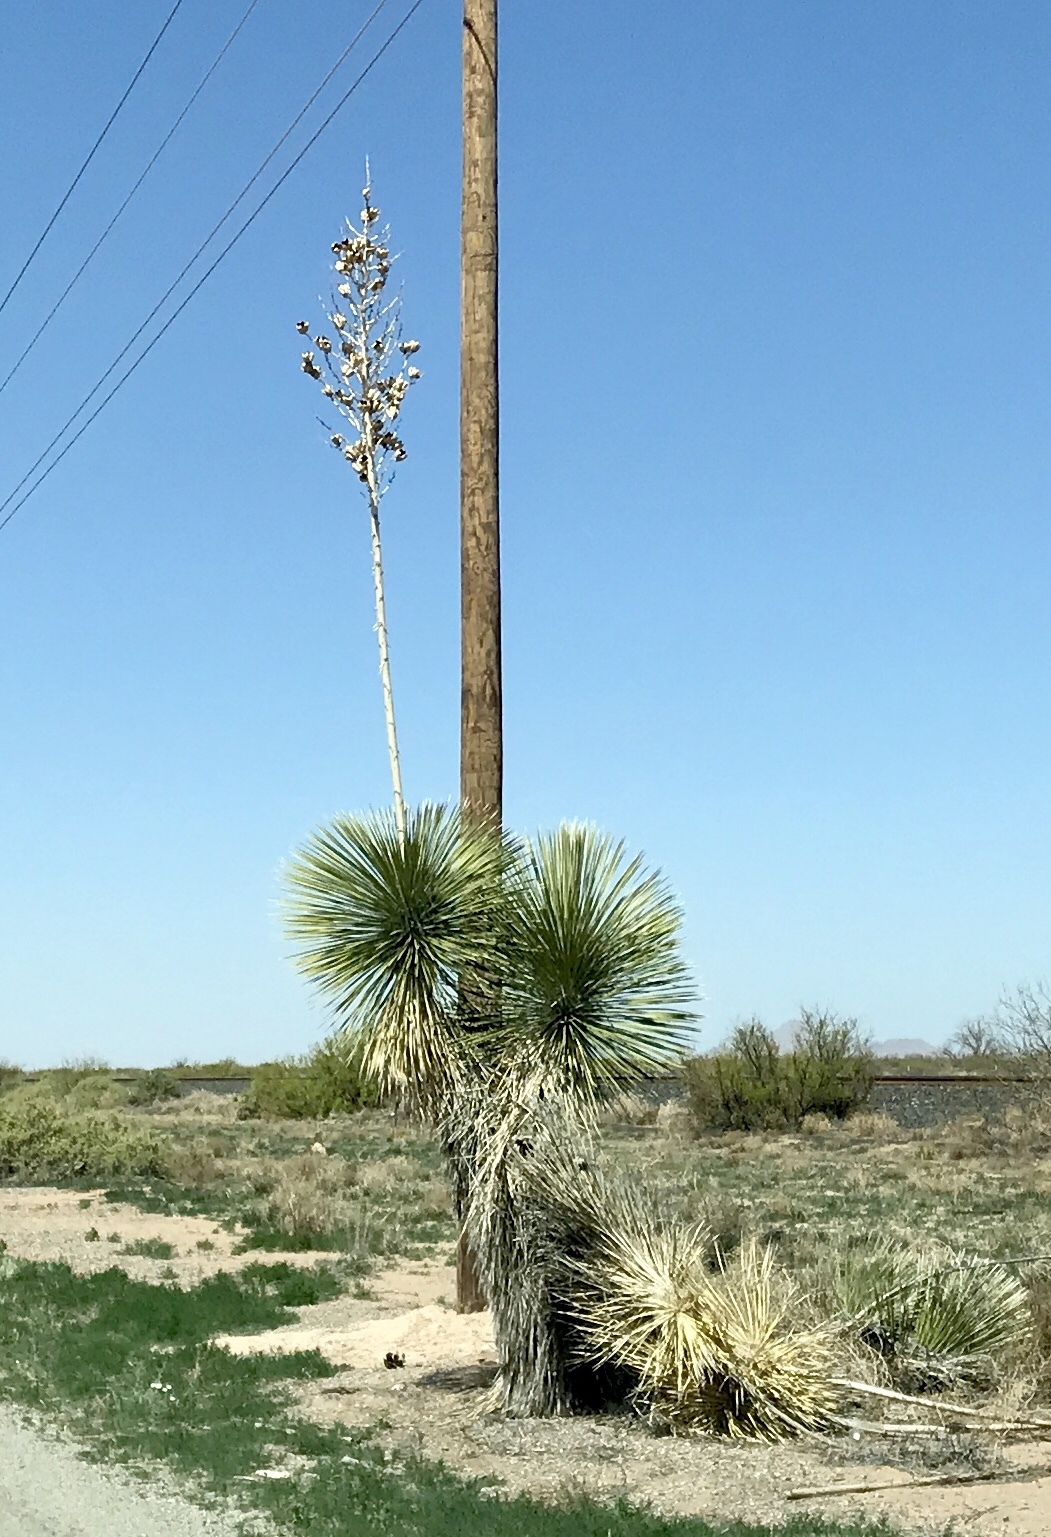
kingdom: Plantae
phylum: Tracheophyta
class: Liliopsida
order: Asparagales
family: Asparagaceae
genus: Yucca
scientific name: Yucca elata
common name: Palmella
